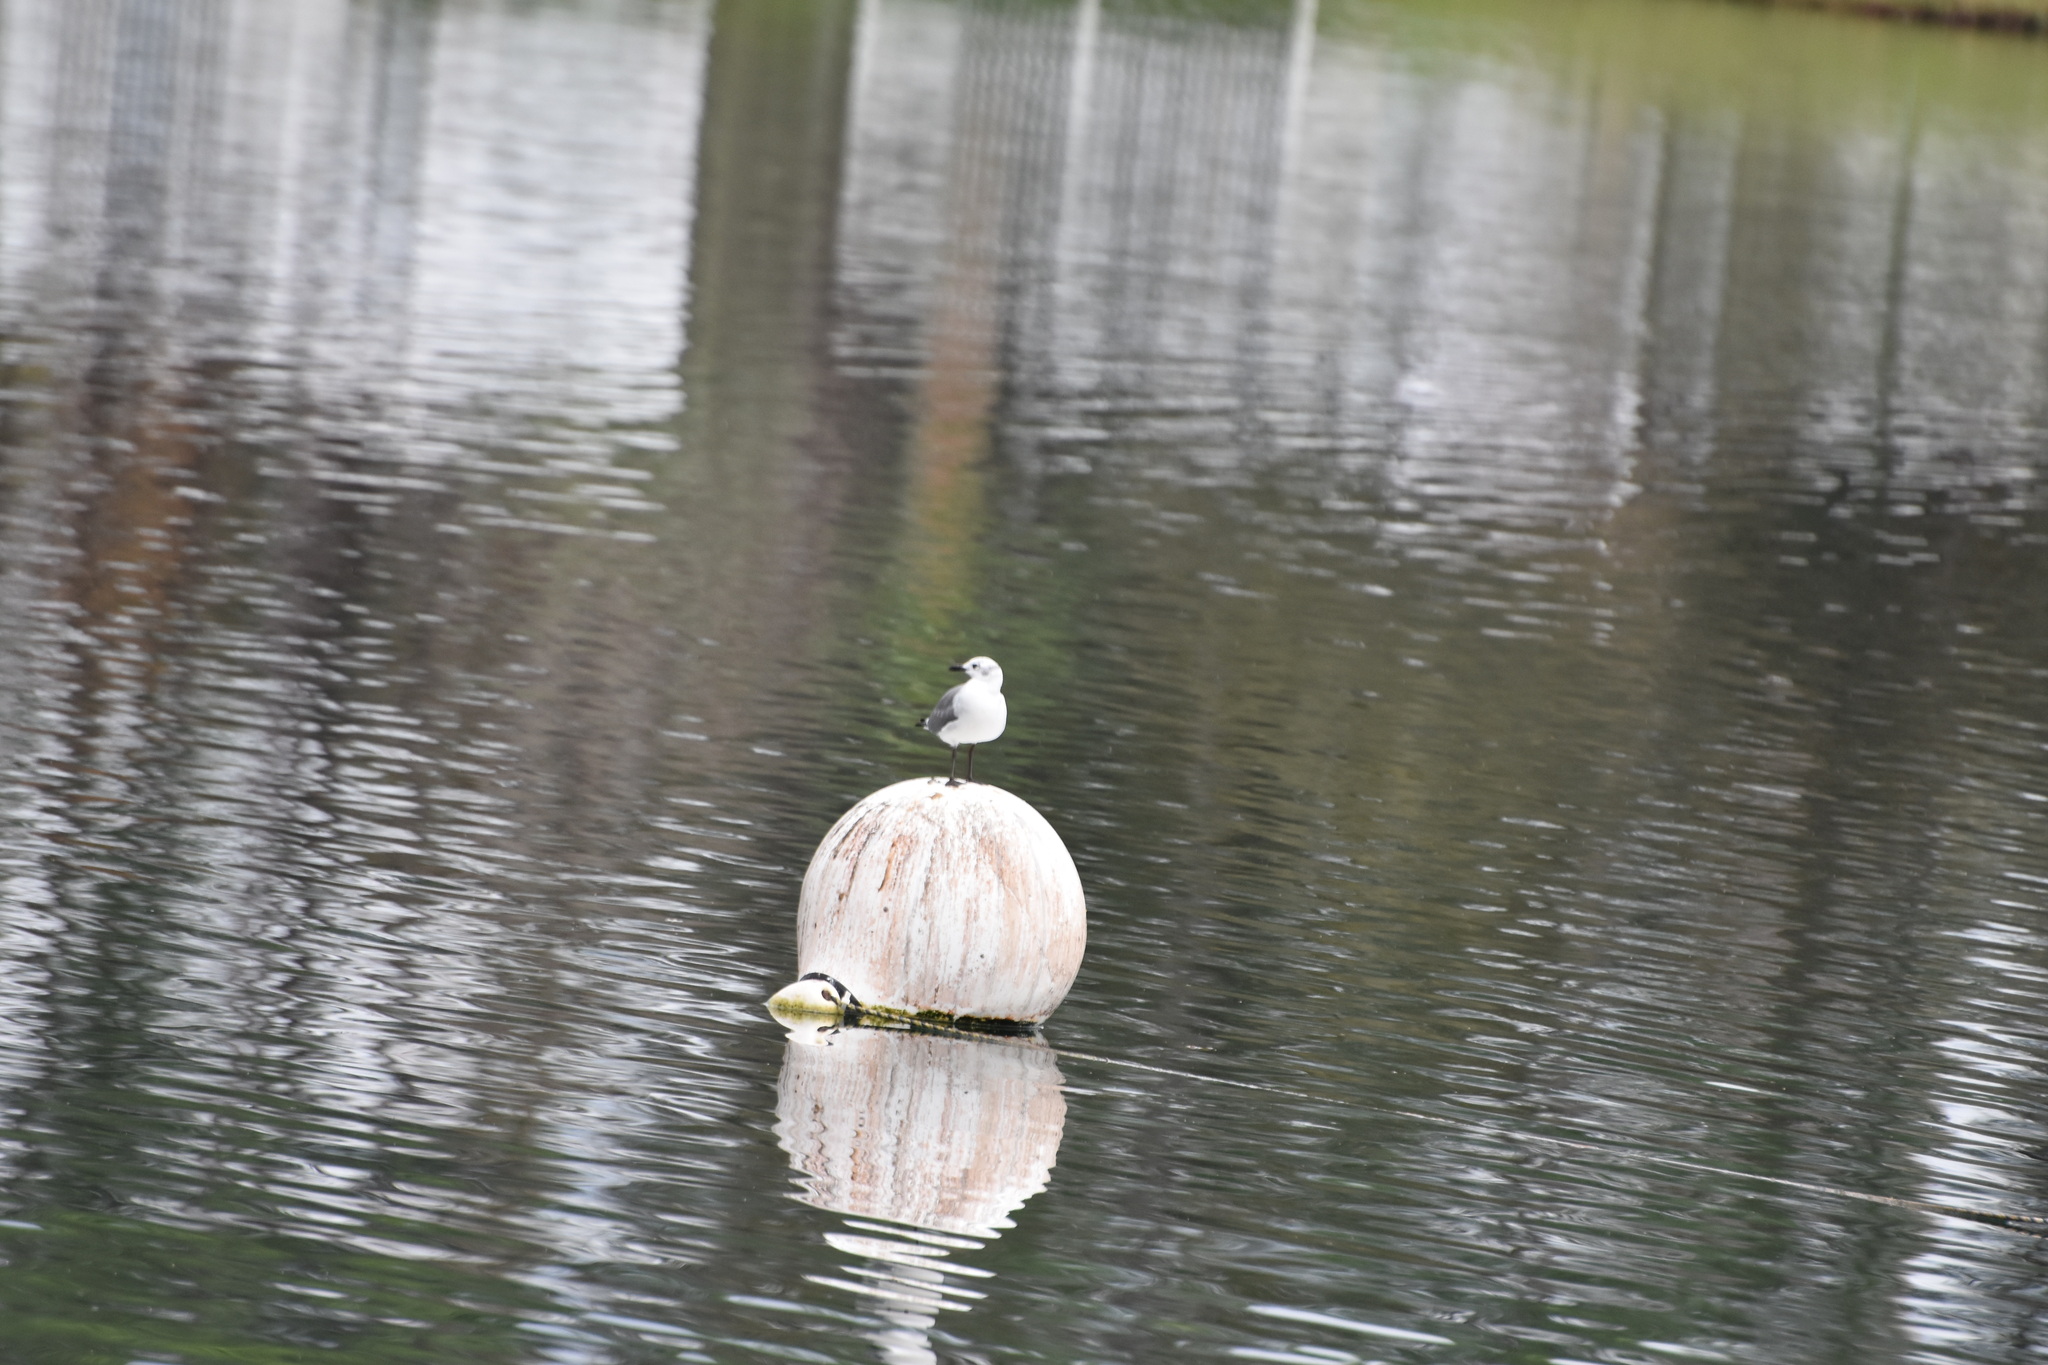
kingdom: Animalia
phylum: Chordata
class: Aves
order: Charadriiformes
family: Laridae
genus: Leucophaeus
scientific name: Leucophaeus atricilla
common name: Laughing gull
